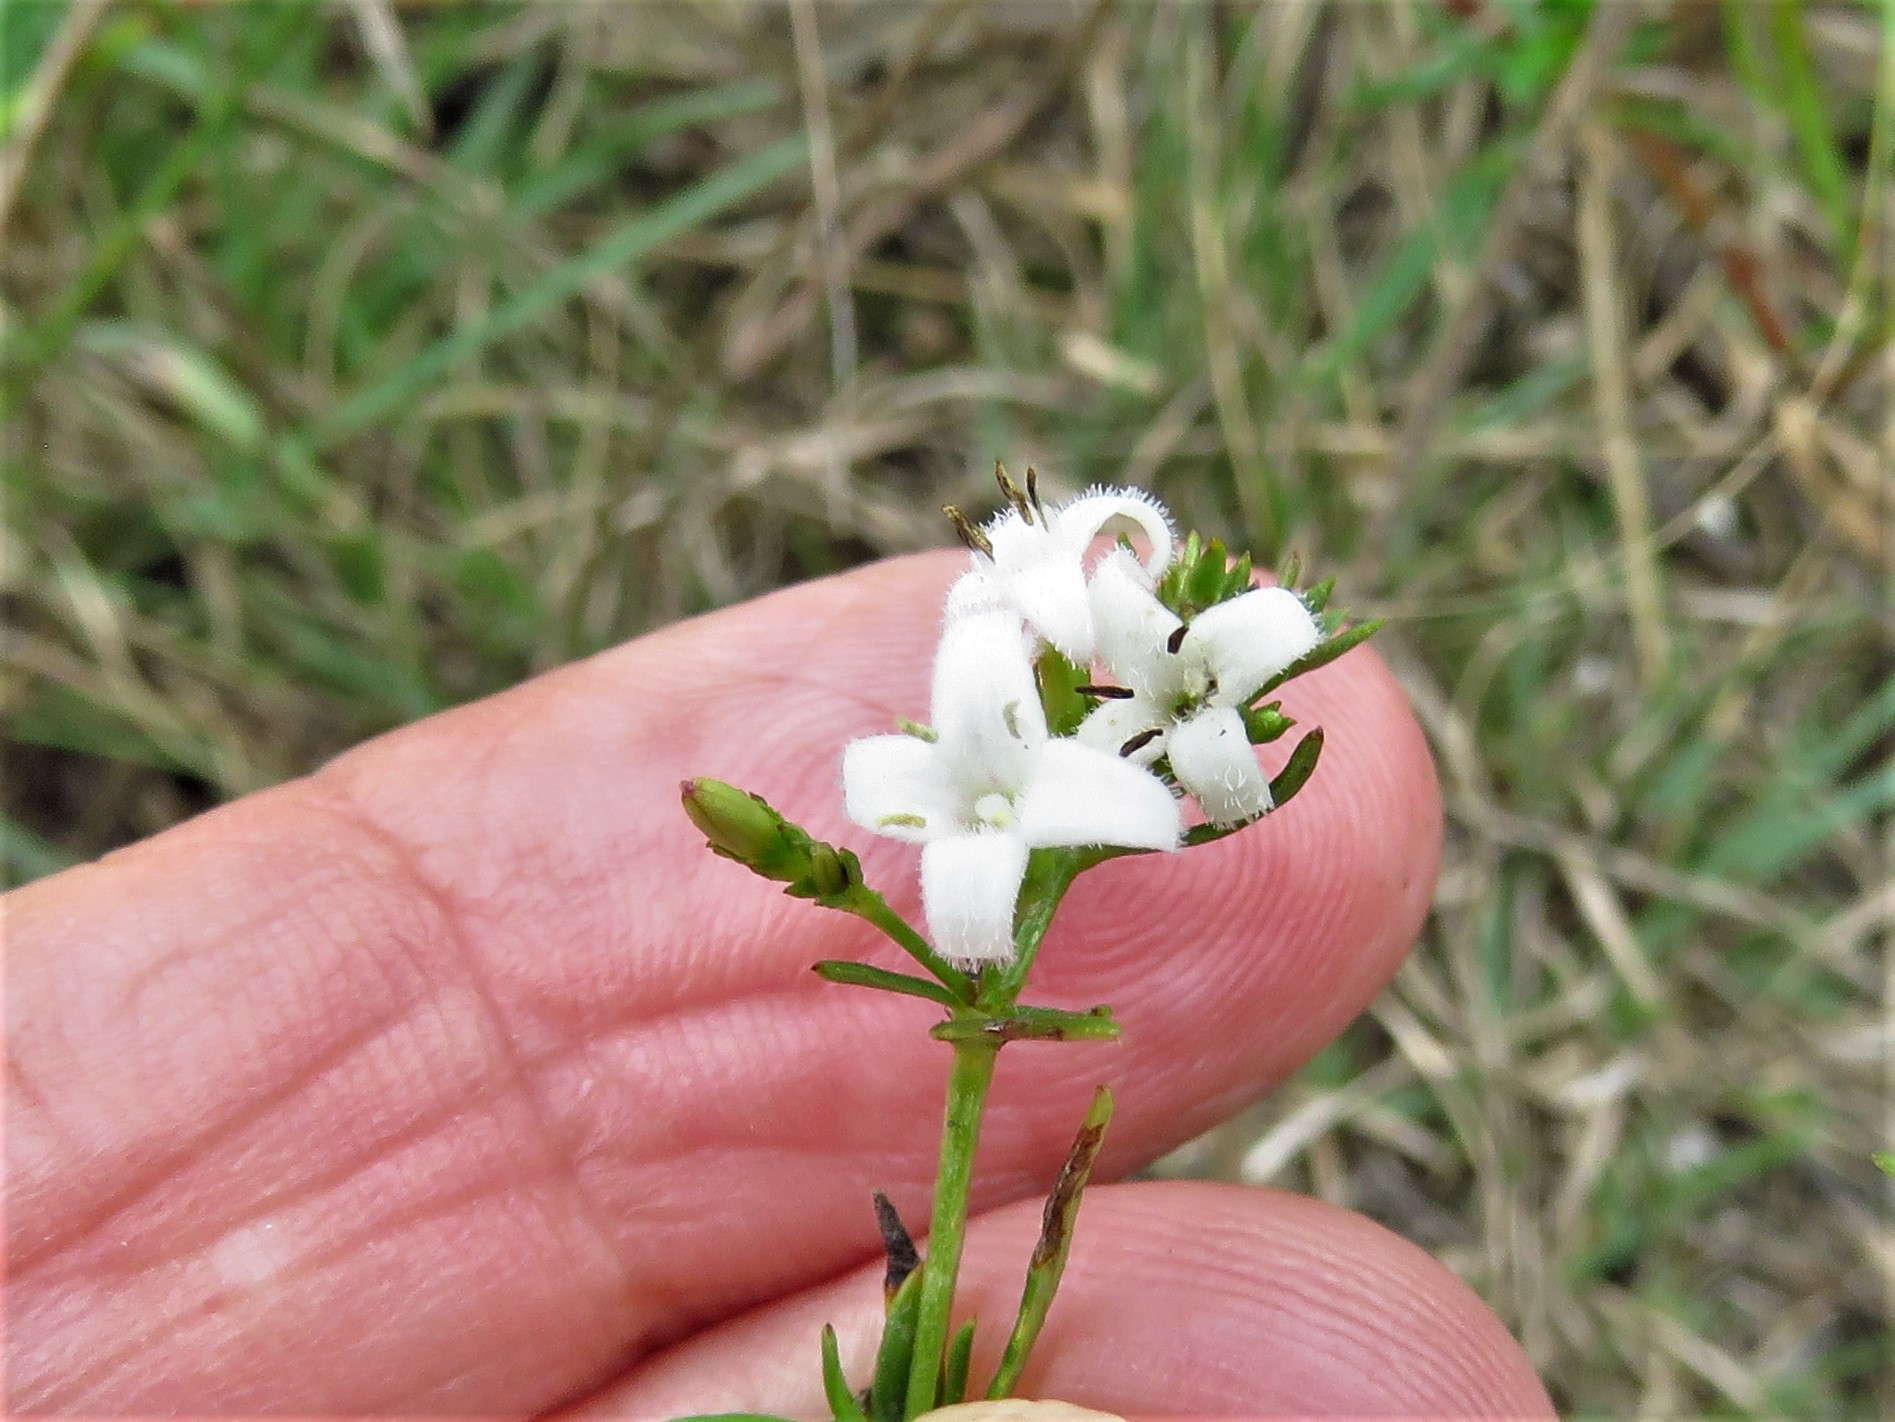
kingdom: Plantae
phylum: Tracheophyta
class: Magnoliopsida
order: Gentianales
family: Rubiaceae
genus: Stenaria
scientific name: Stenaria nigricans
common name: Diamondflowers
